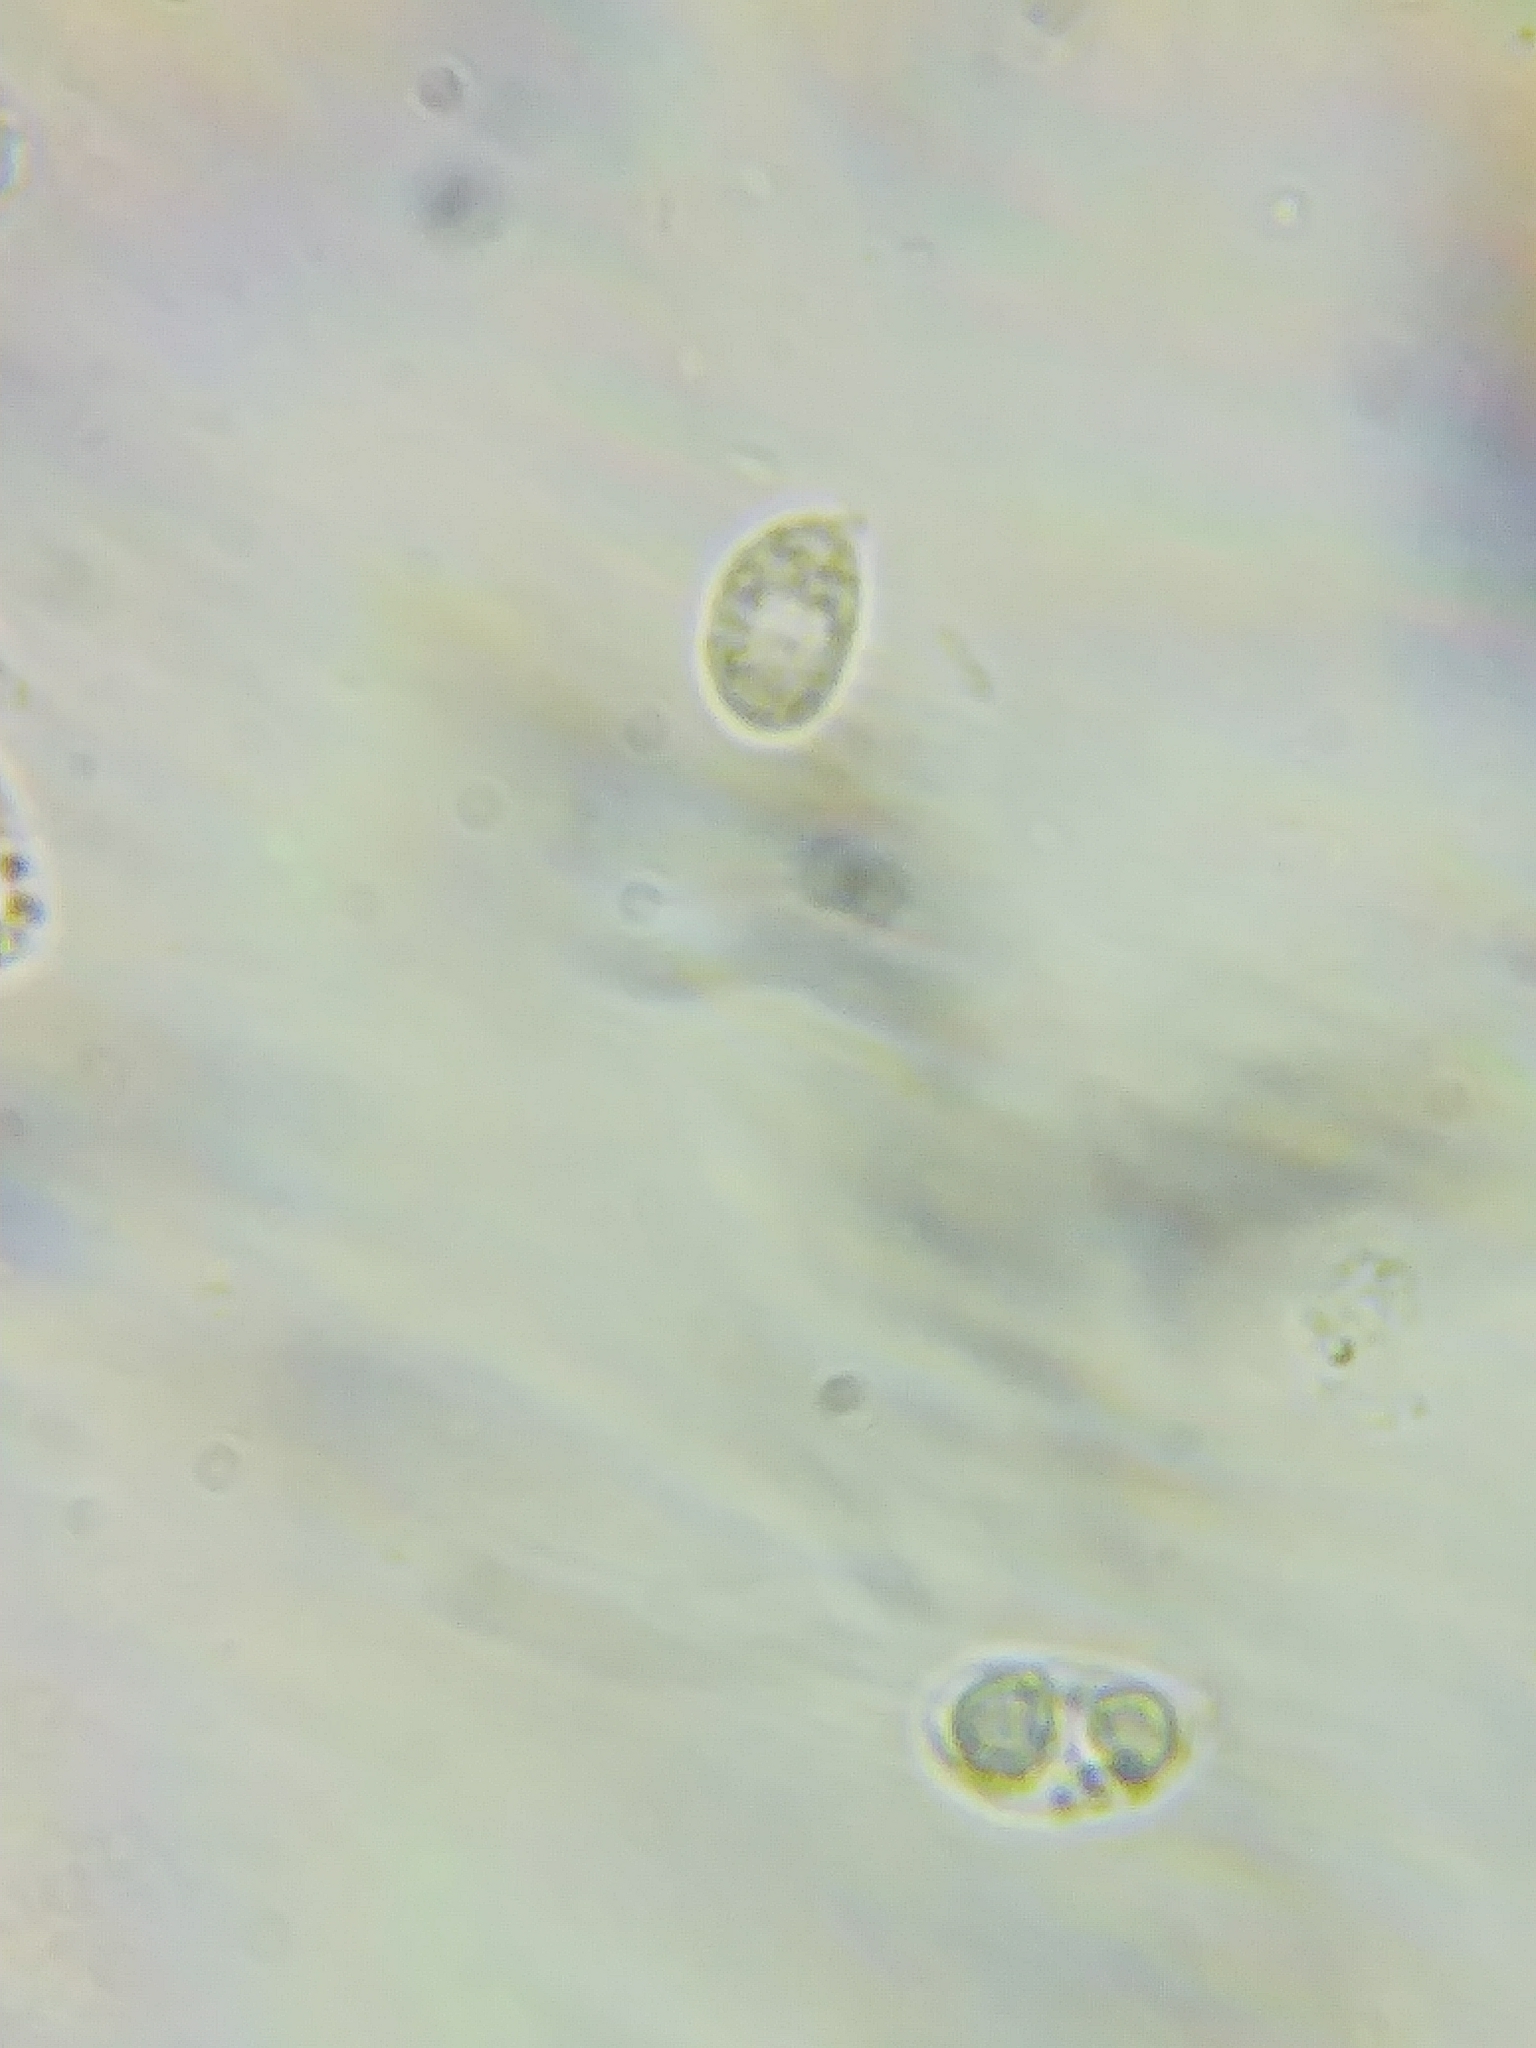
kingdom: Fungi
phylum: Basidiomycota
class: Agaricomycetes
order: Agaricales
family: Mycenaceae
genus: Mycena
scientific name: Mycena sanguinolenta
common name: Bleeding bonnet
